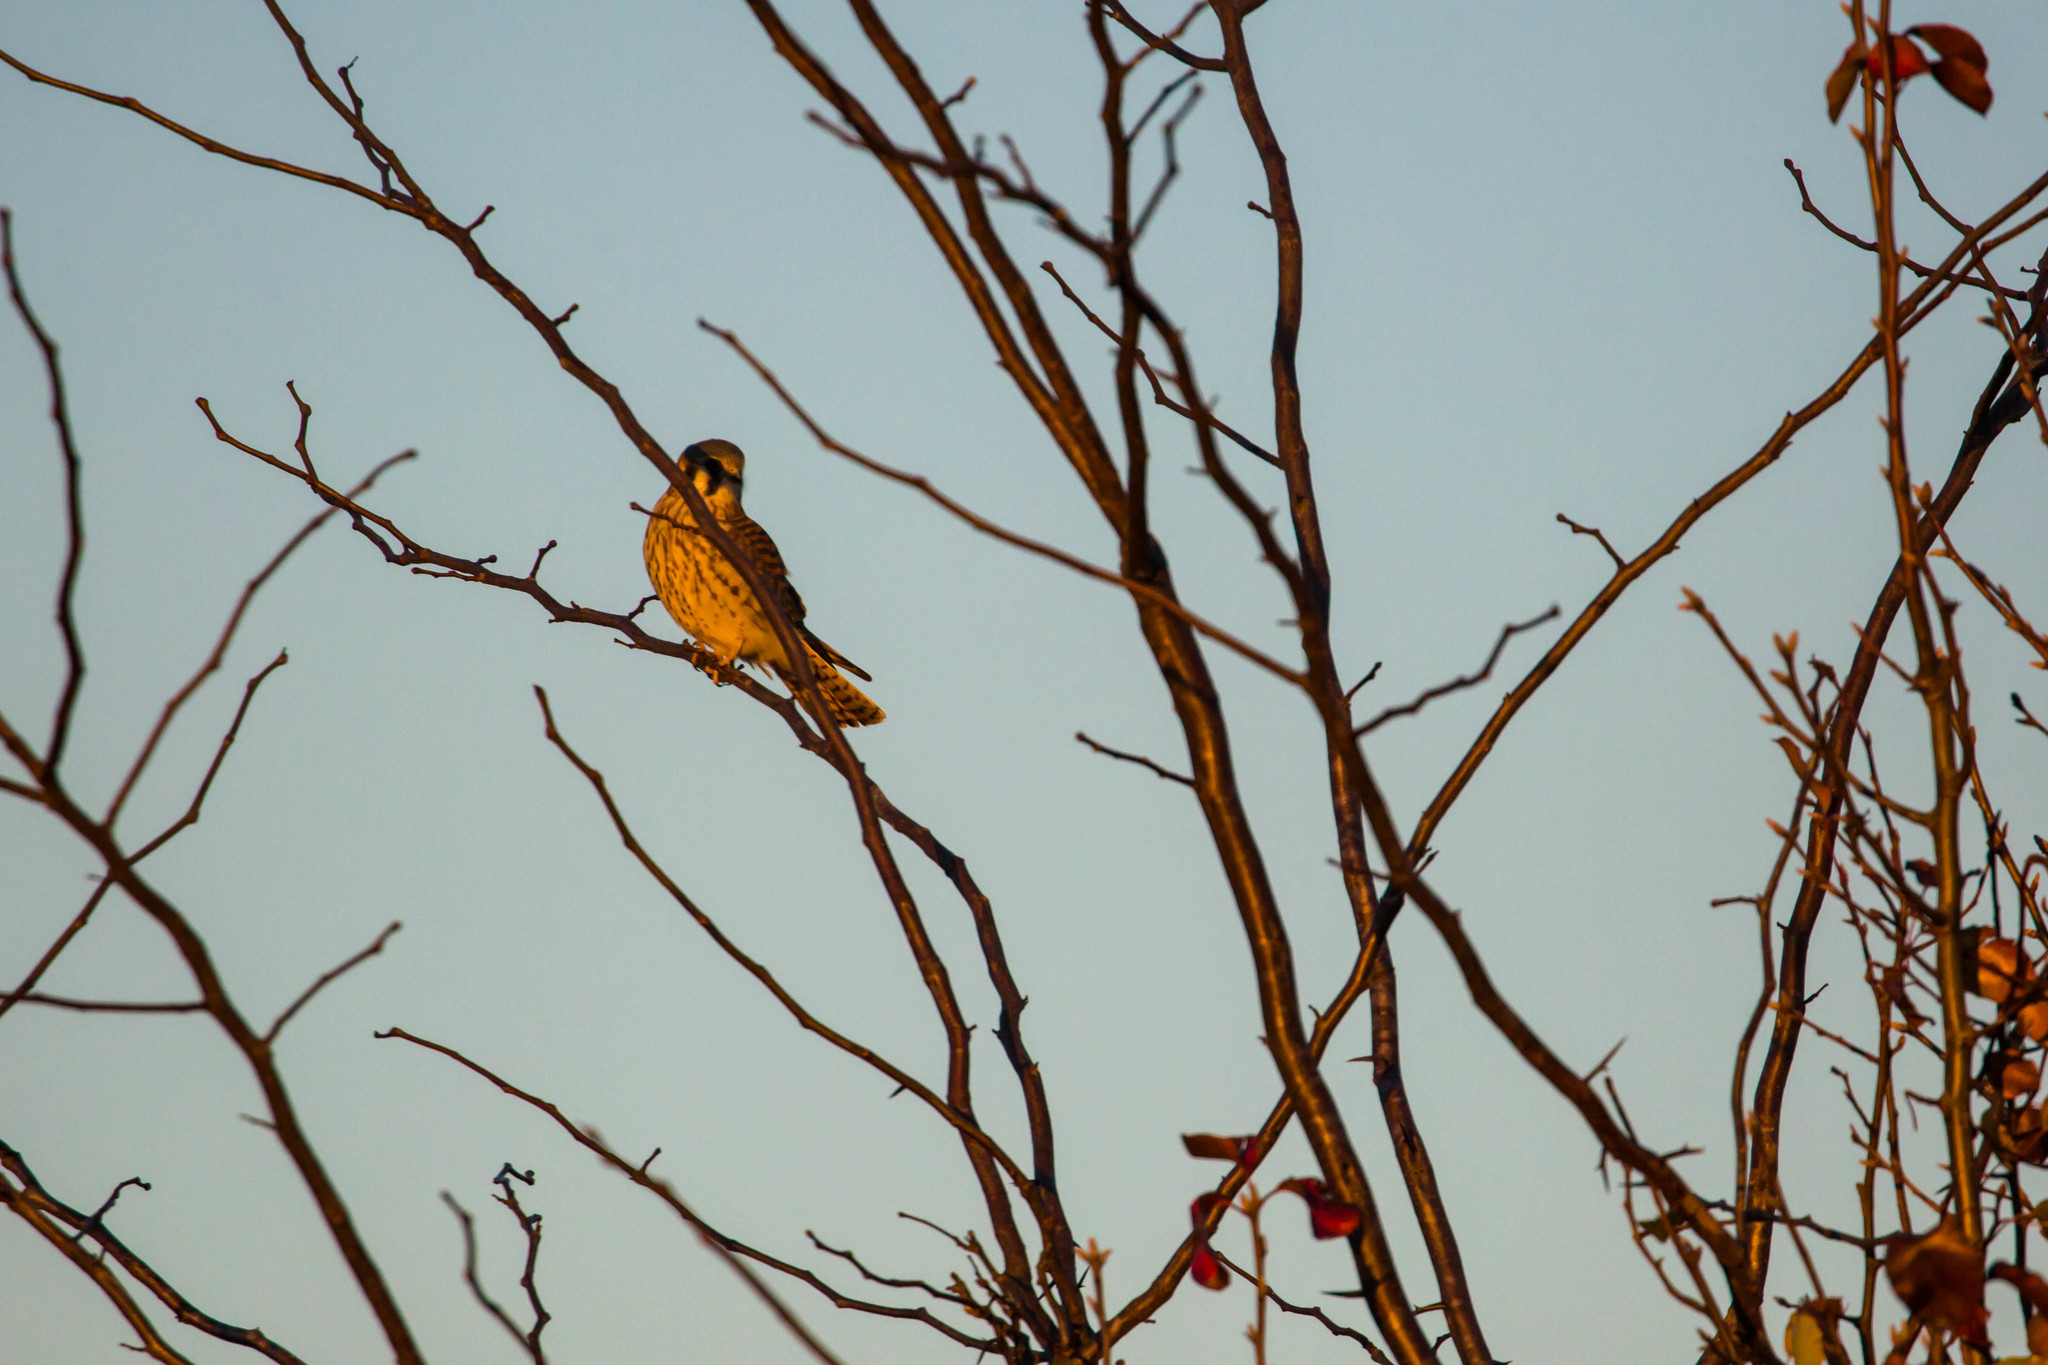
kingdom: Animalia
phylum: Chordata
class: Aves
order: Falconiformes
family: Falconidae
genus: Falco
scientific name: Falco sparverius
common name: American kestrel
